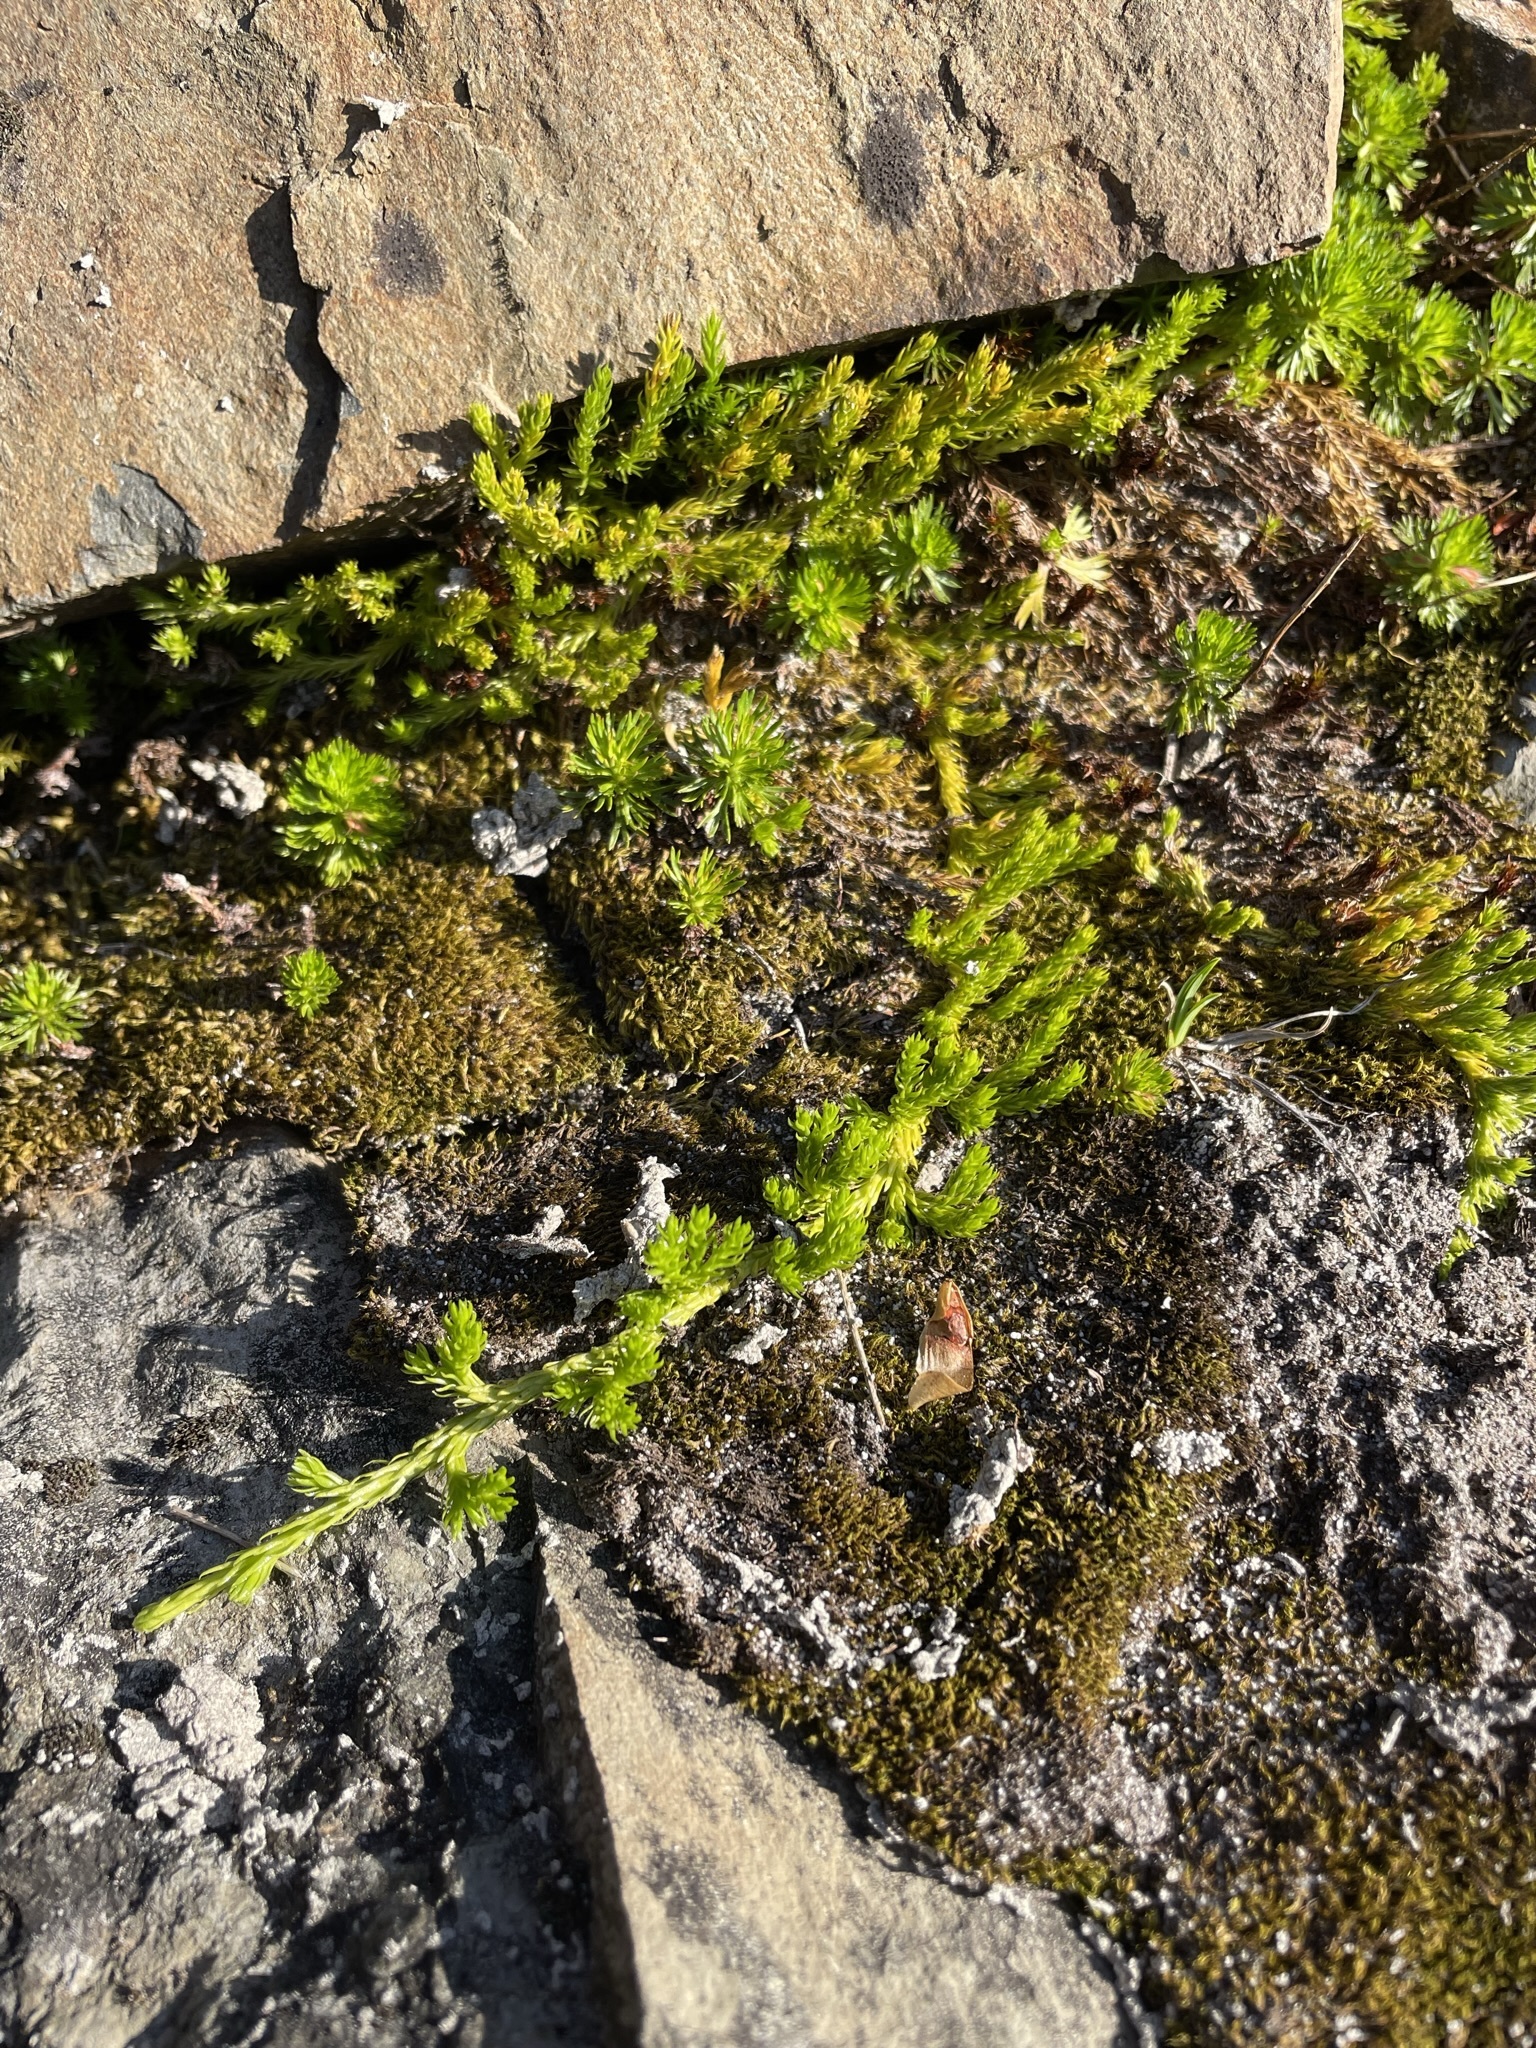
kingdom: Plantae
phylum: Tracheophyta
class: Lycopodiopsida
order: Lycopodiales
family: Lycopodiaceae
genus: Diphasiastrum
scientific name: Diphasiastrum sitchense
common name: Alaska clubmoss
